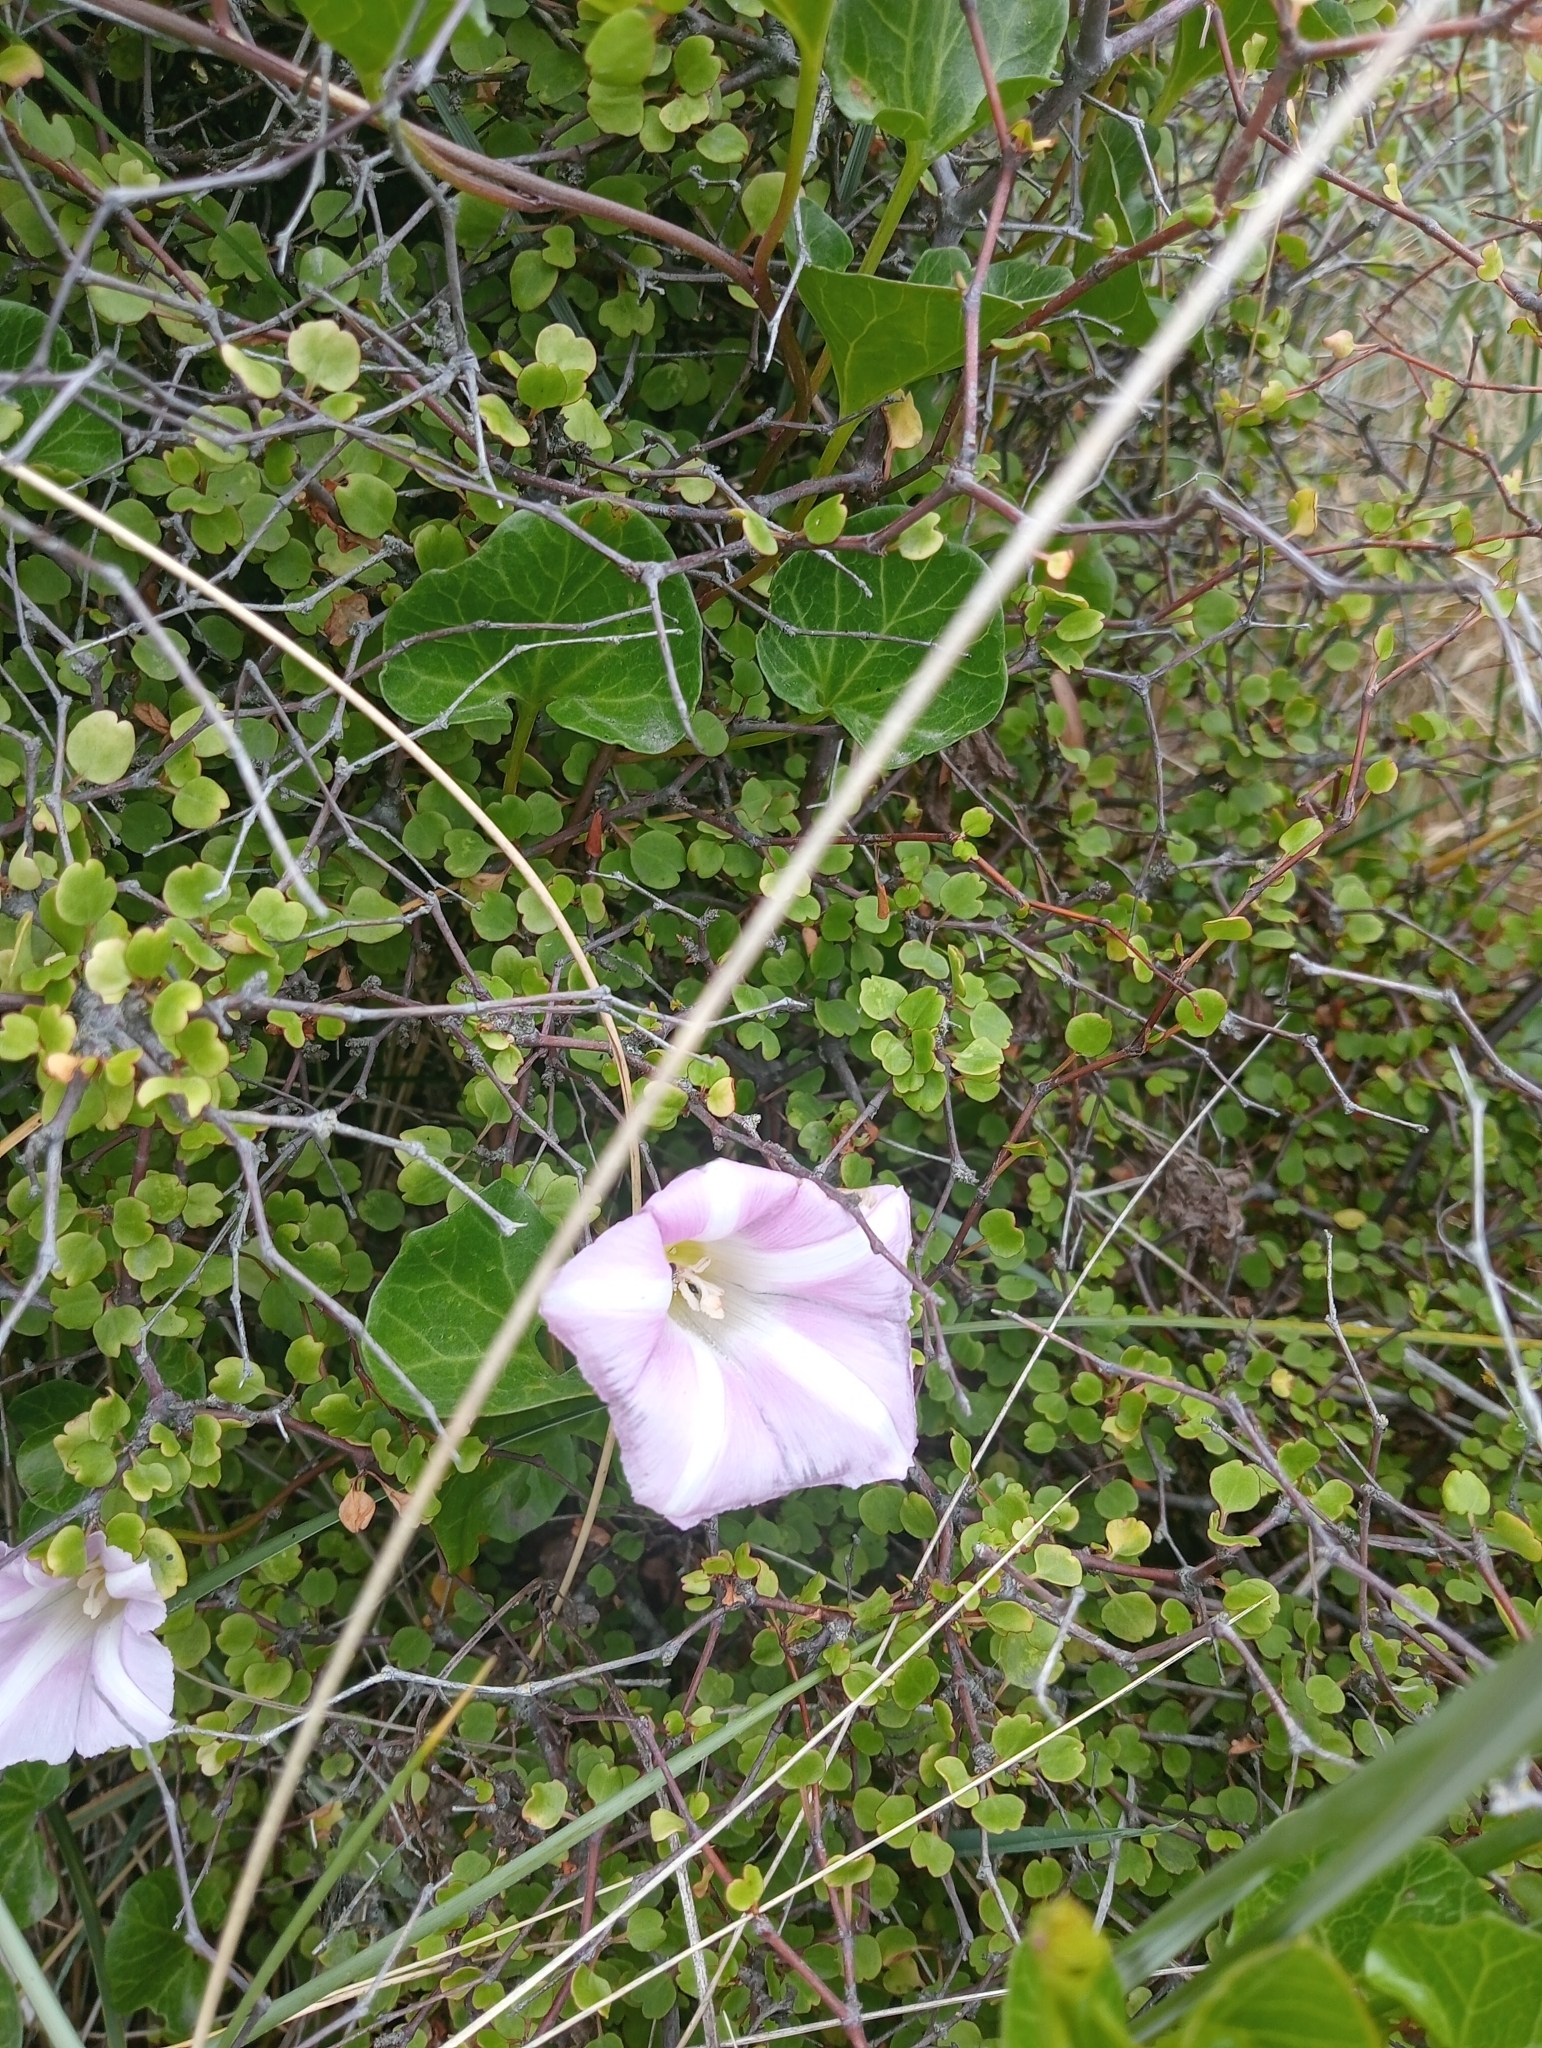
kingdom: Plantae
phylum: Tracheophyta
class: Magnoliopsida
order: Solanales
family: Convolvulaceae
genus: Calystegia
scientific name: Calystegia soldanella
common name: Sea bindweed
